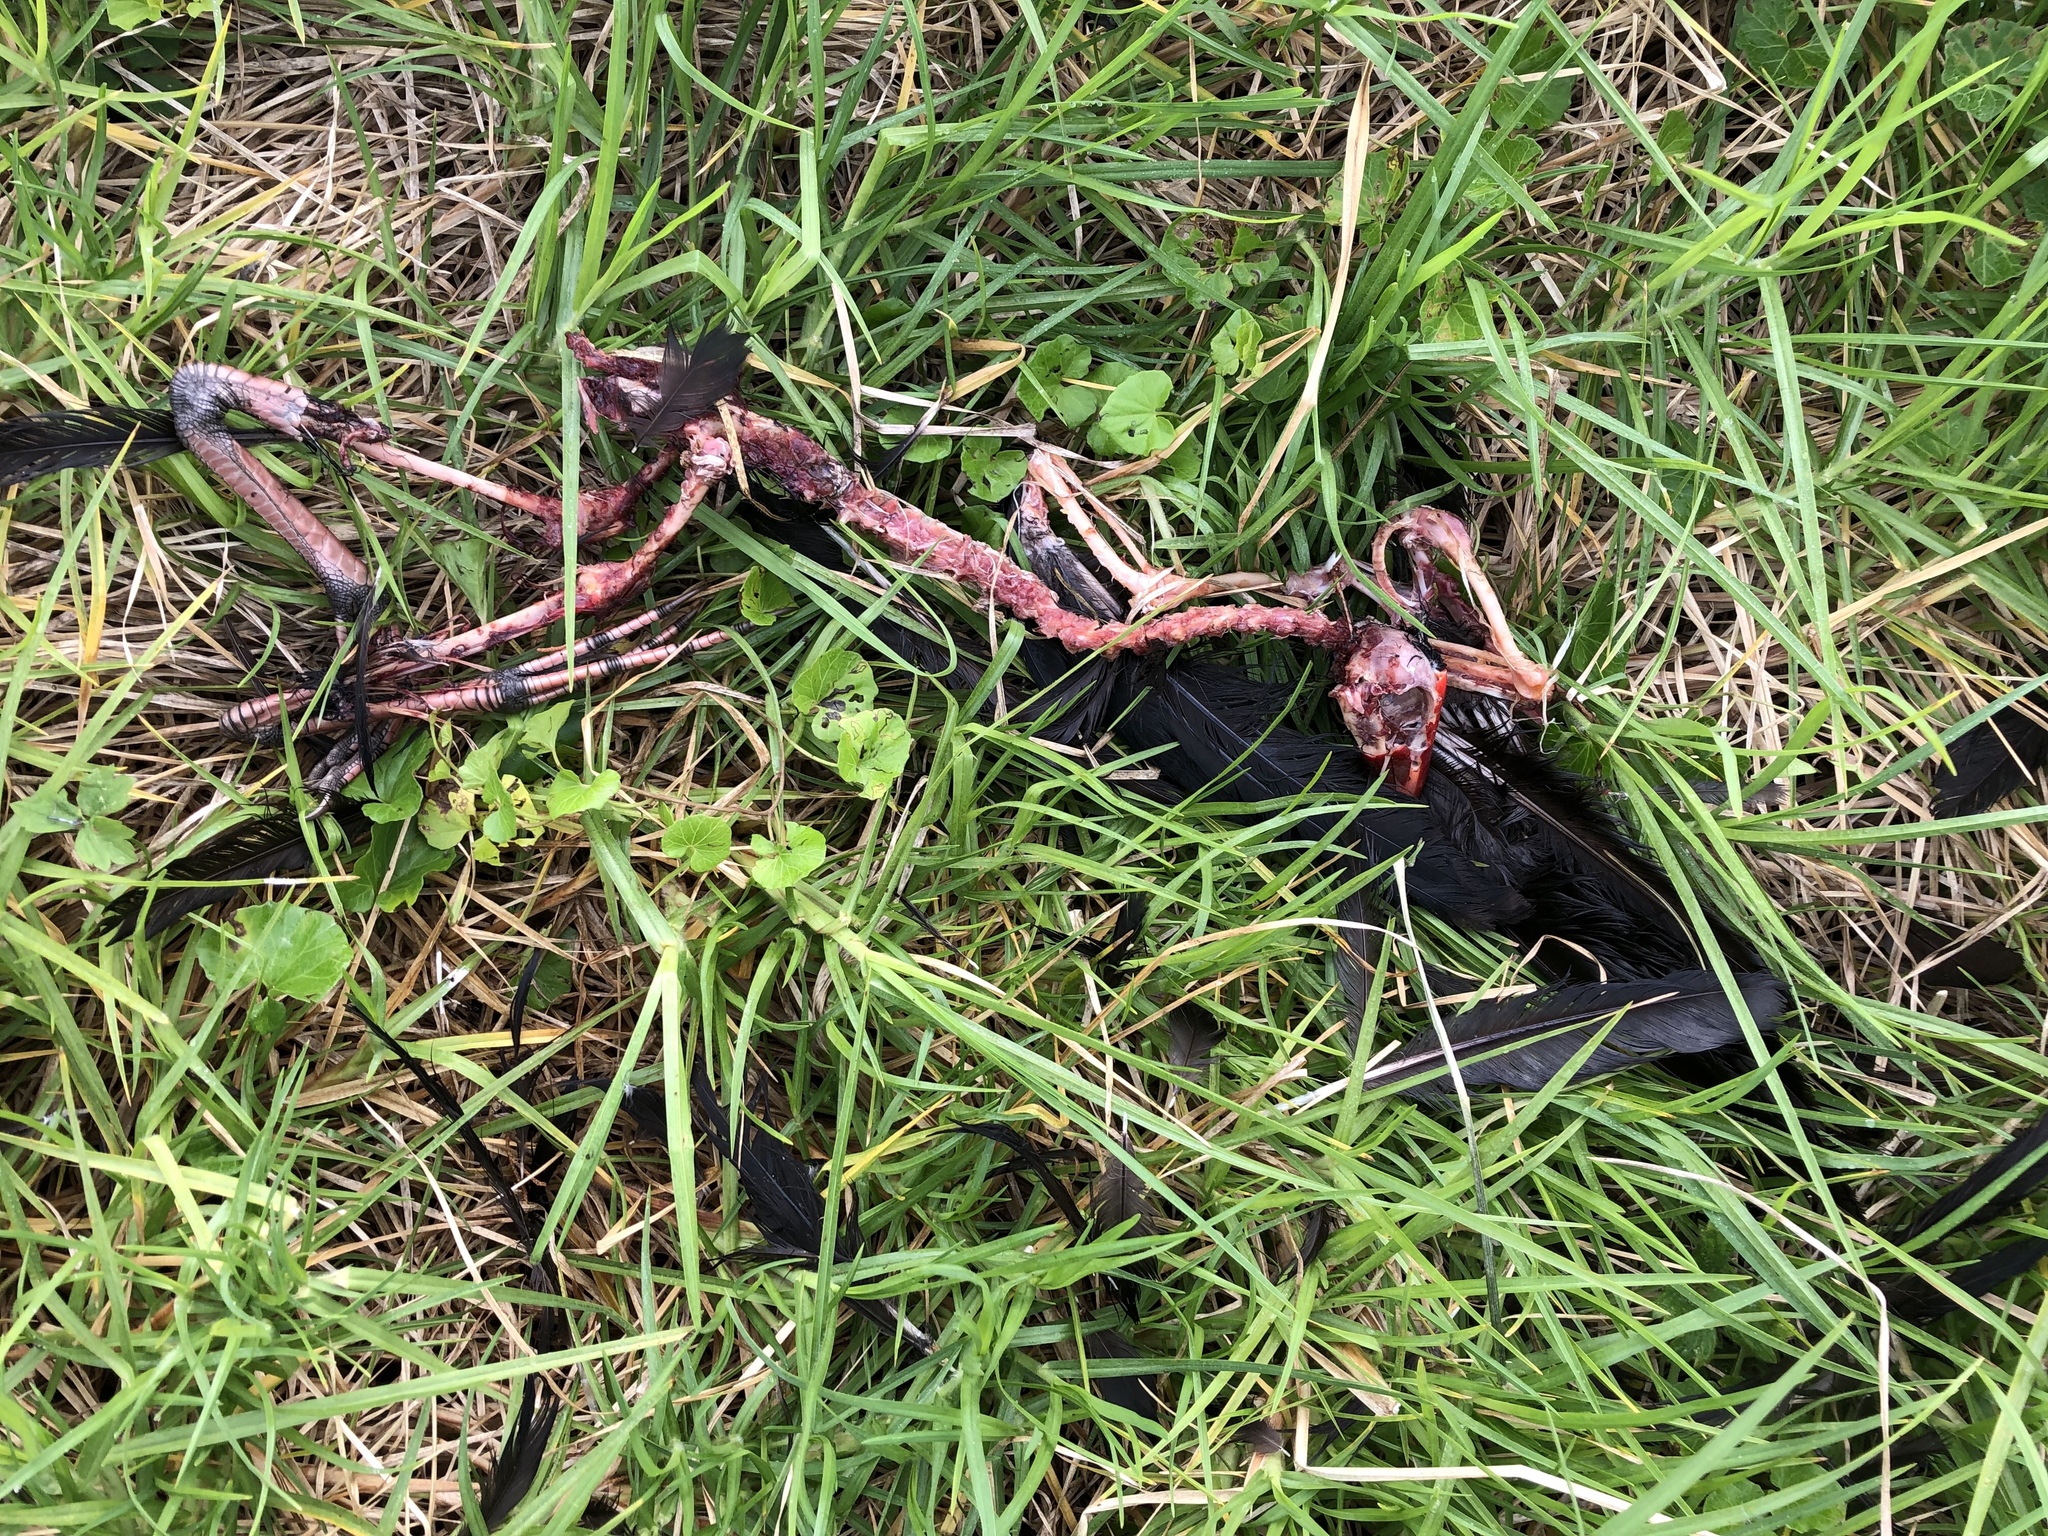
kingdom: Animalia
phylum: Chordata
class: Aves
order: Gruiformes
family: Rallidae
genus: Porphyrio
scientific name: Porphyrio melanotus
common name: Australasian swamphen
